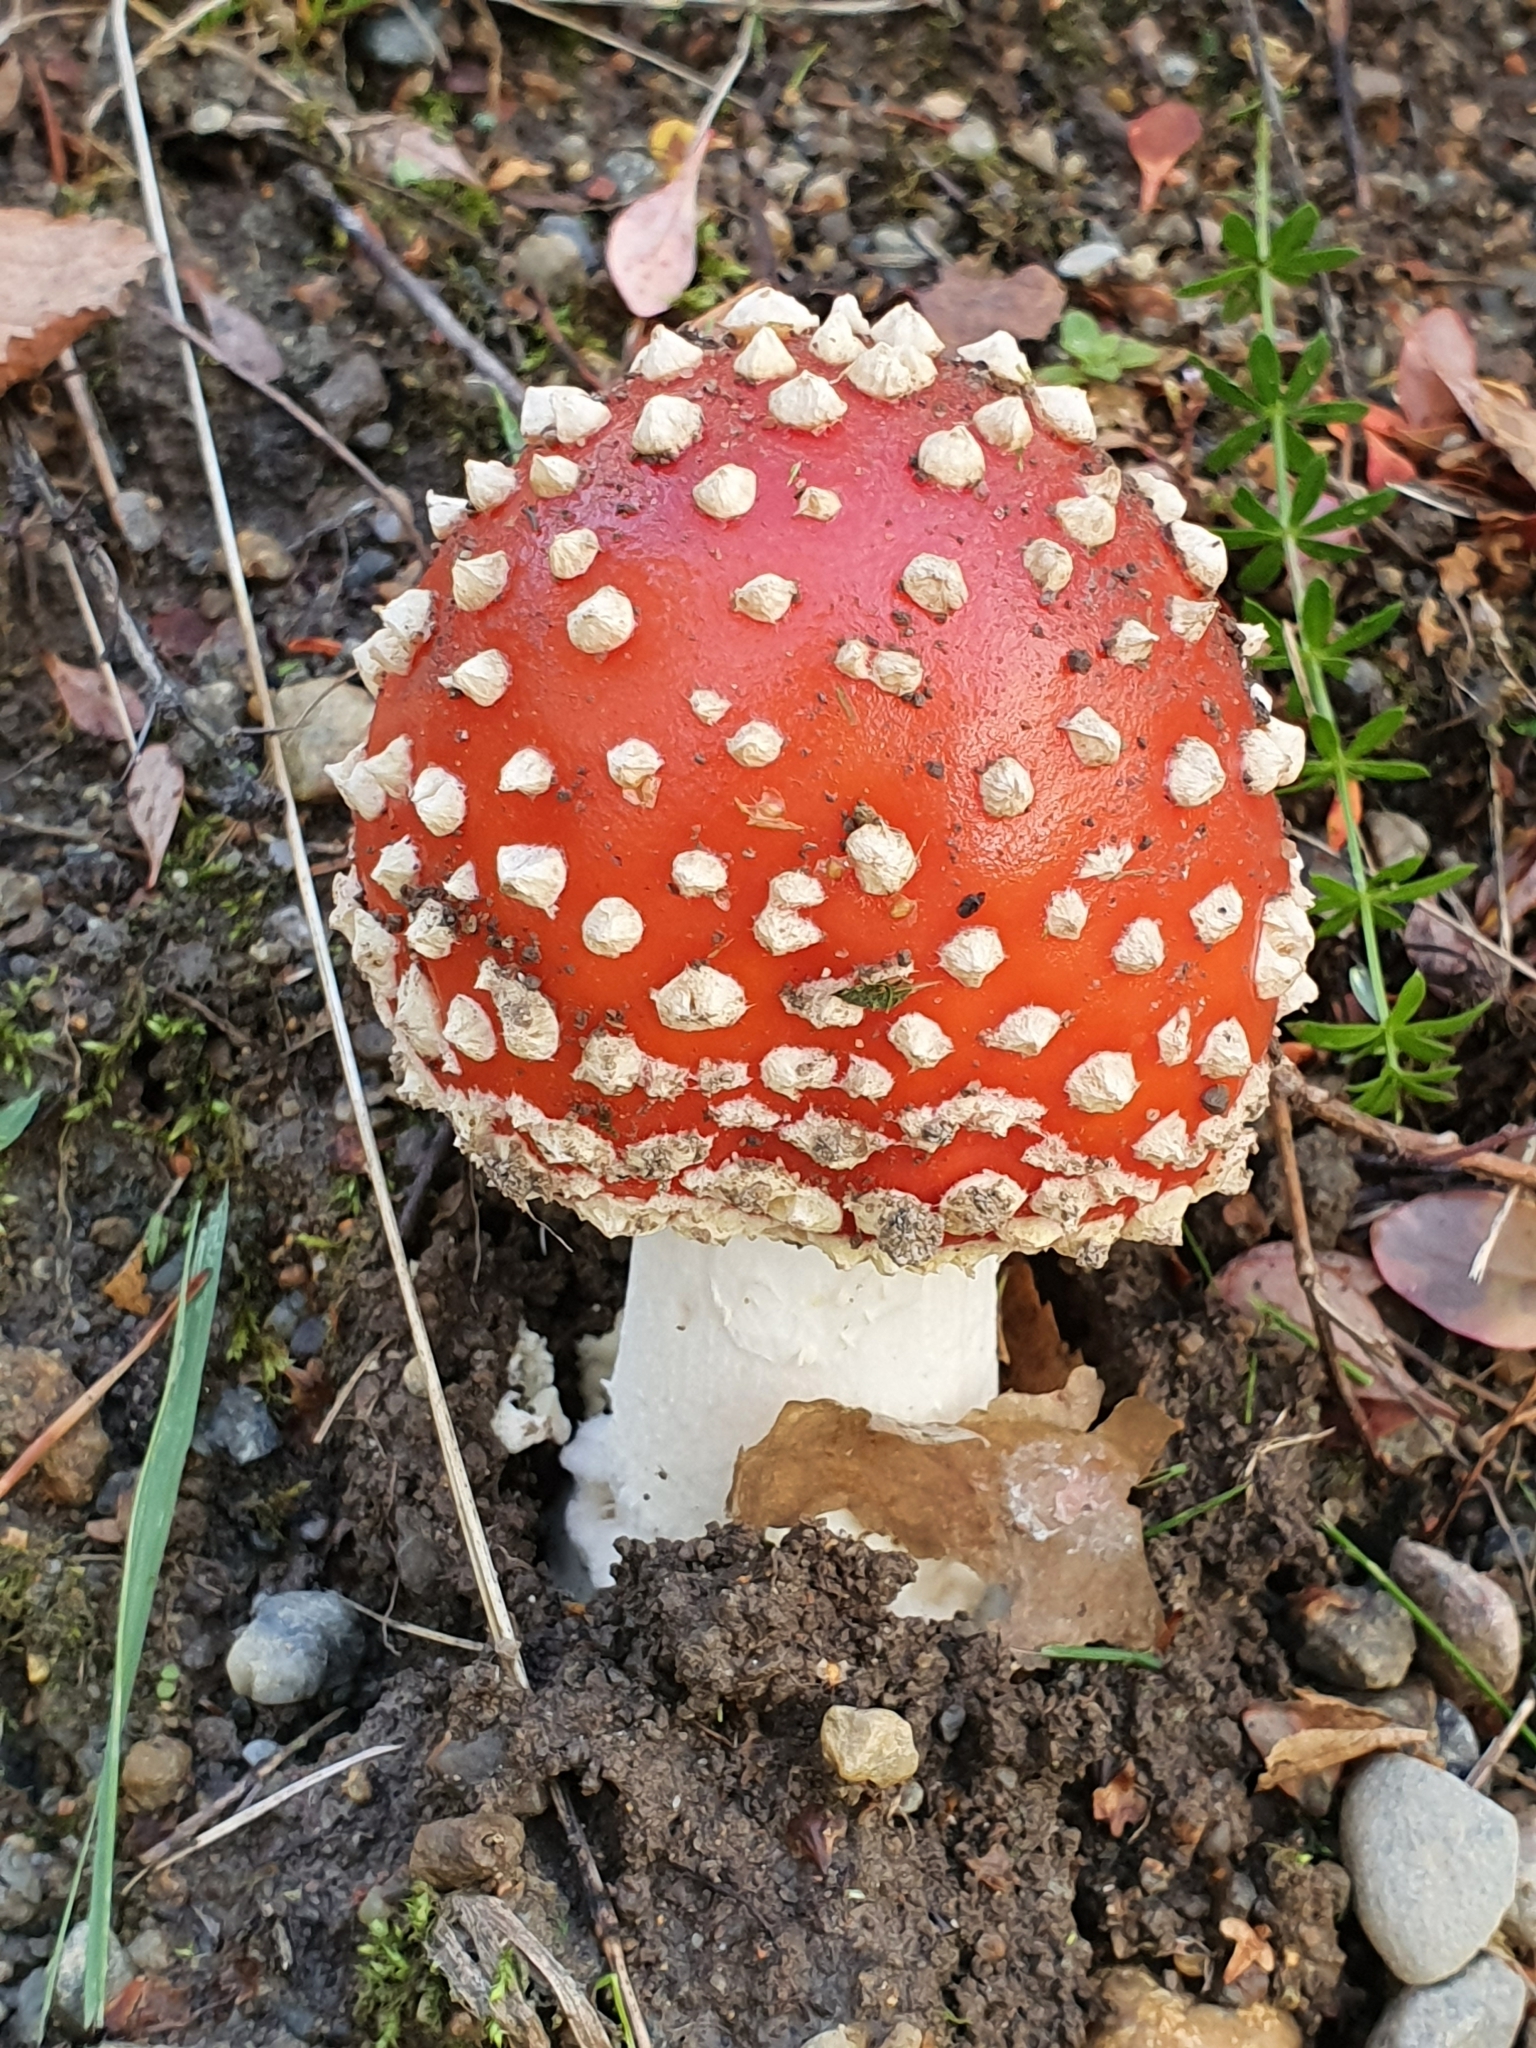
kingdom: Fungi
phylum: Basidiomycota
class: Agaricomycetes
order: Agaricales
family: Amanitaceae
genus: Amanita
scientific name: Amanita muscaria
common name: Fly agaric
